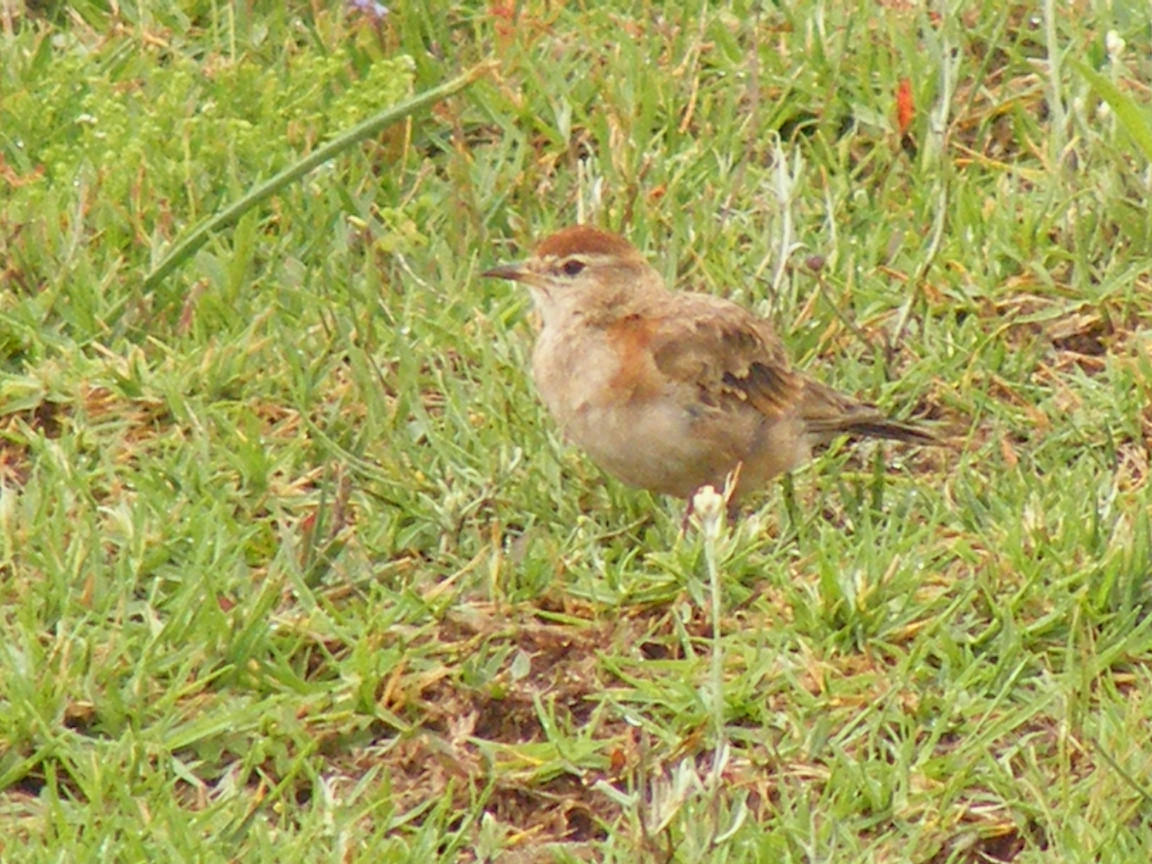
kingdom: Animalia
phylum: Chordata
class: Aves
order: Passeriformes
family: Alaudidae
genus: Calandrella
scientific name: Calandrella cinerea
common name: Red-capped lark
